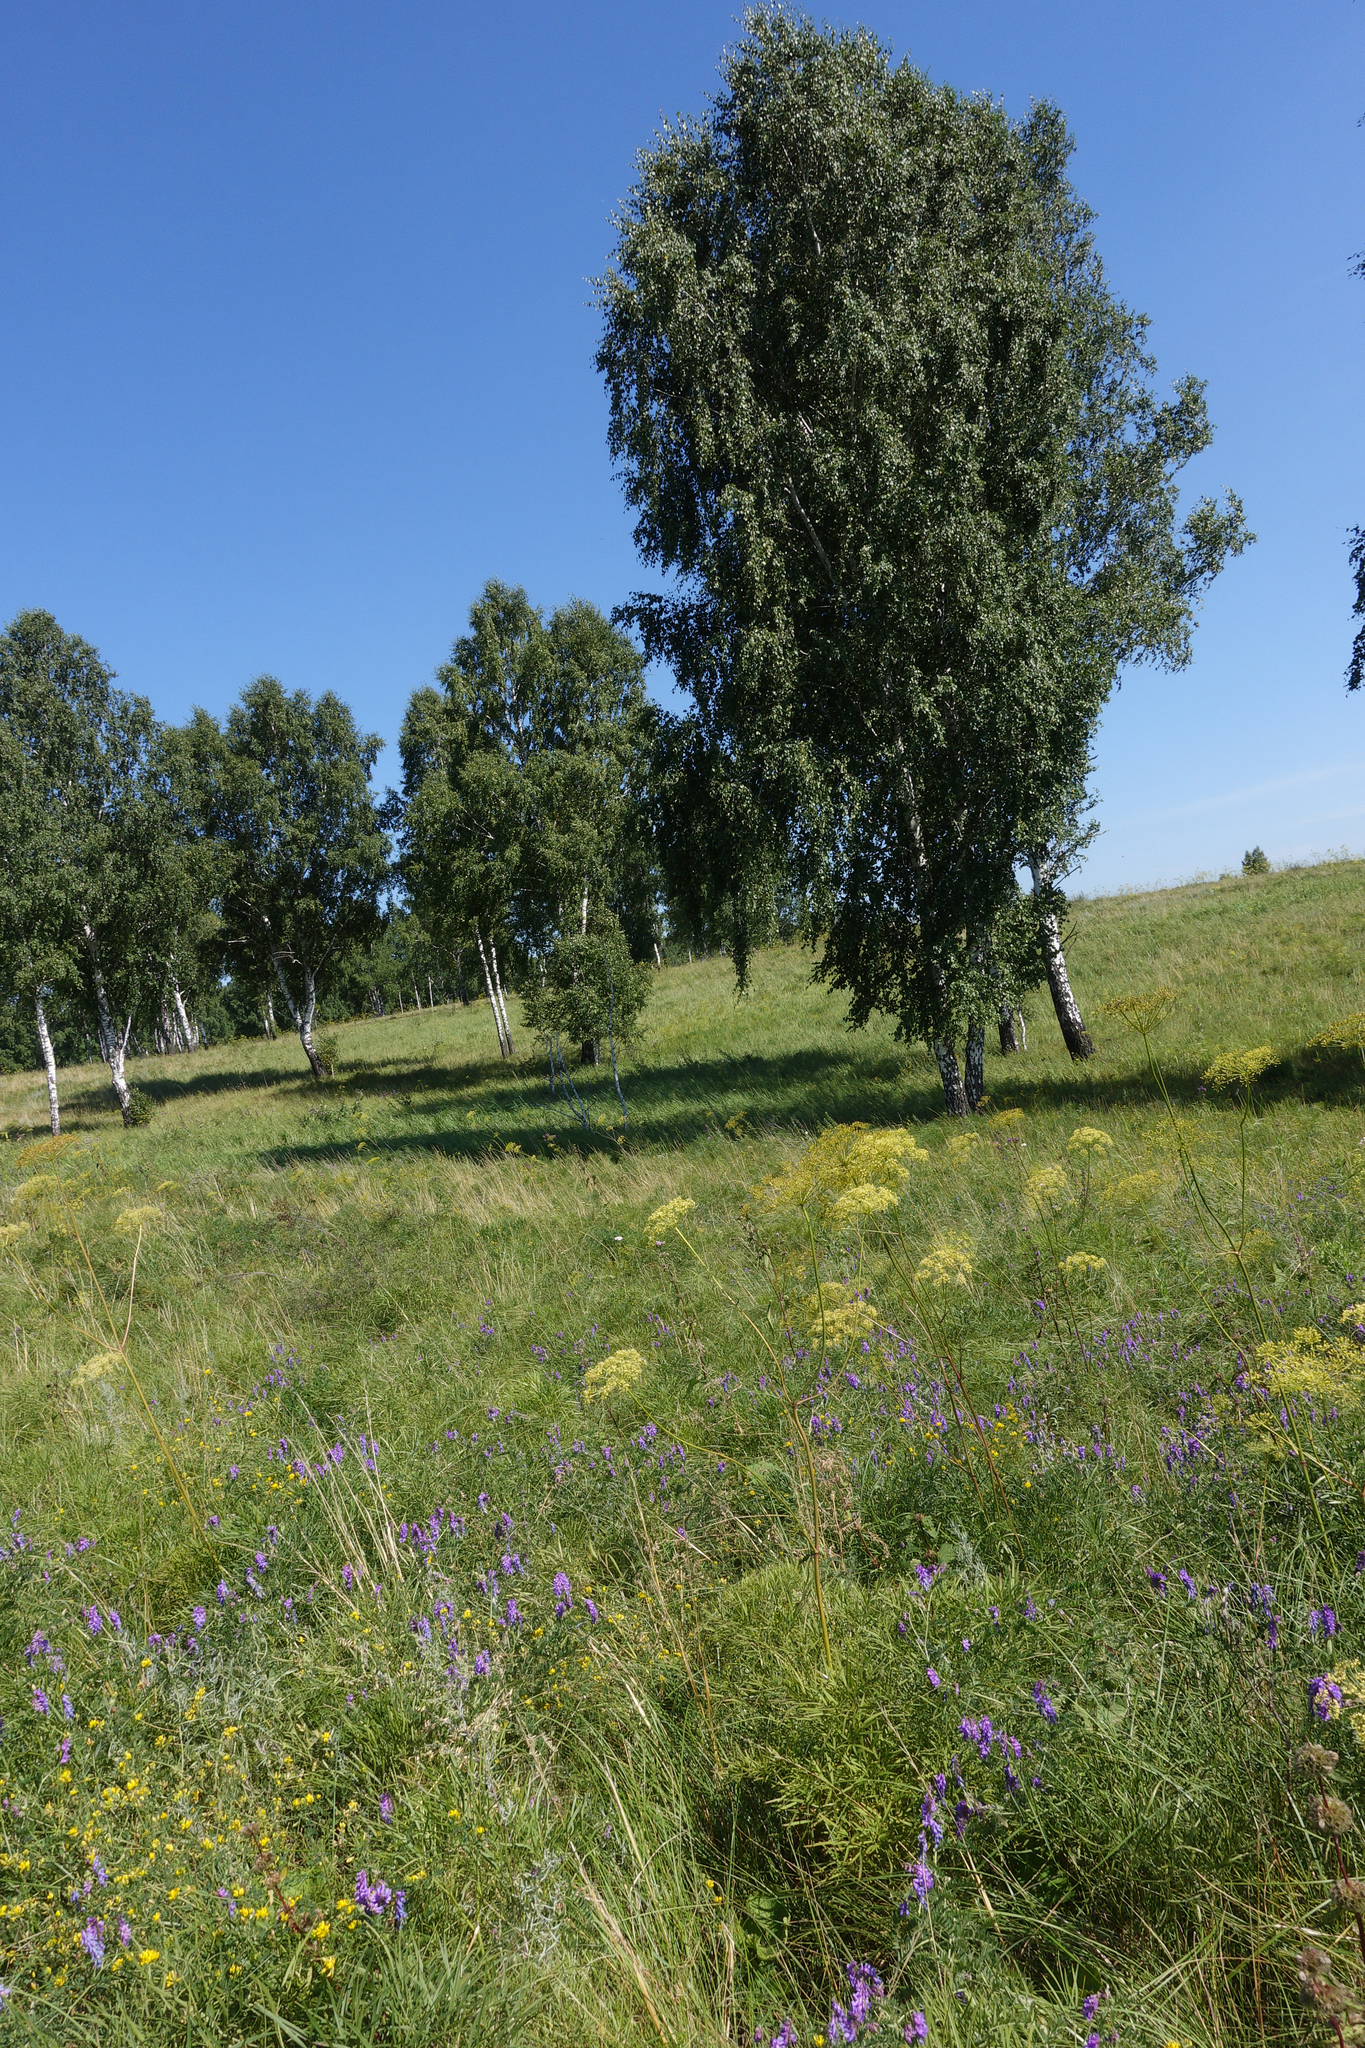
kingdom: Plantae
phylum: Tracheophyta
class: Magnoliopsida
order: Apiales
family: Apiaceae
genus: Peucedanum
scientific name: Peucedanum morisonii
